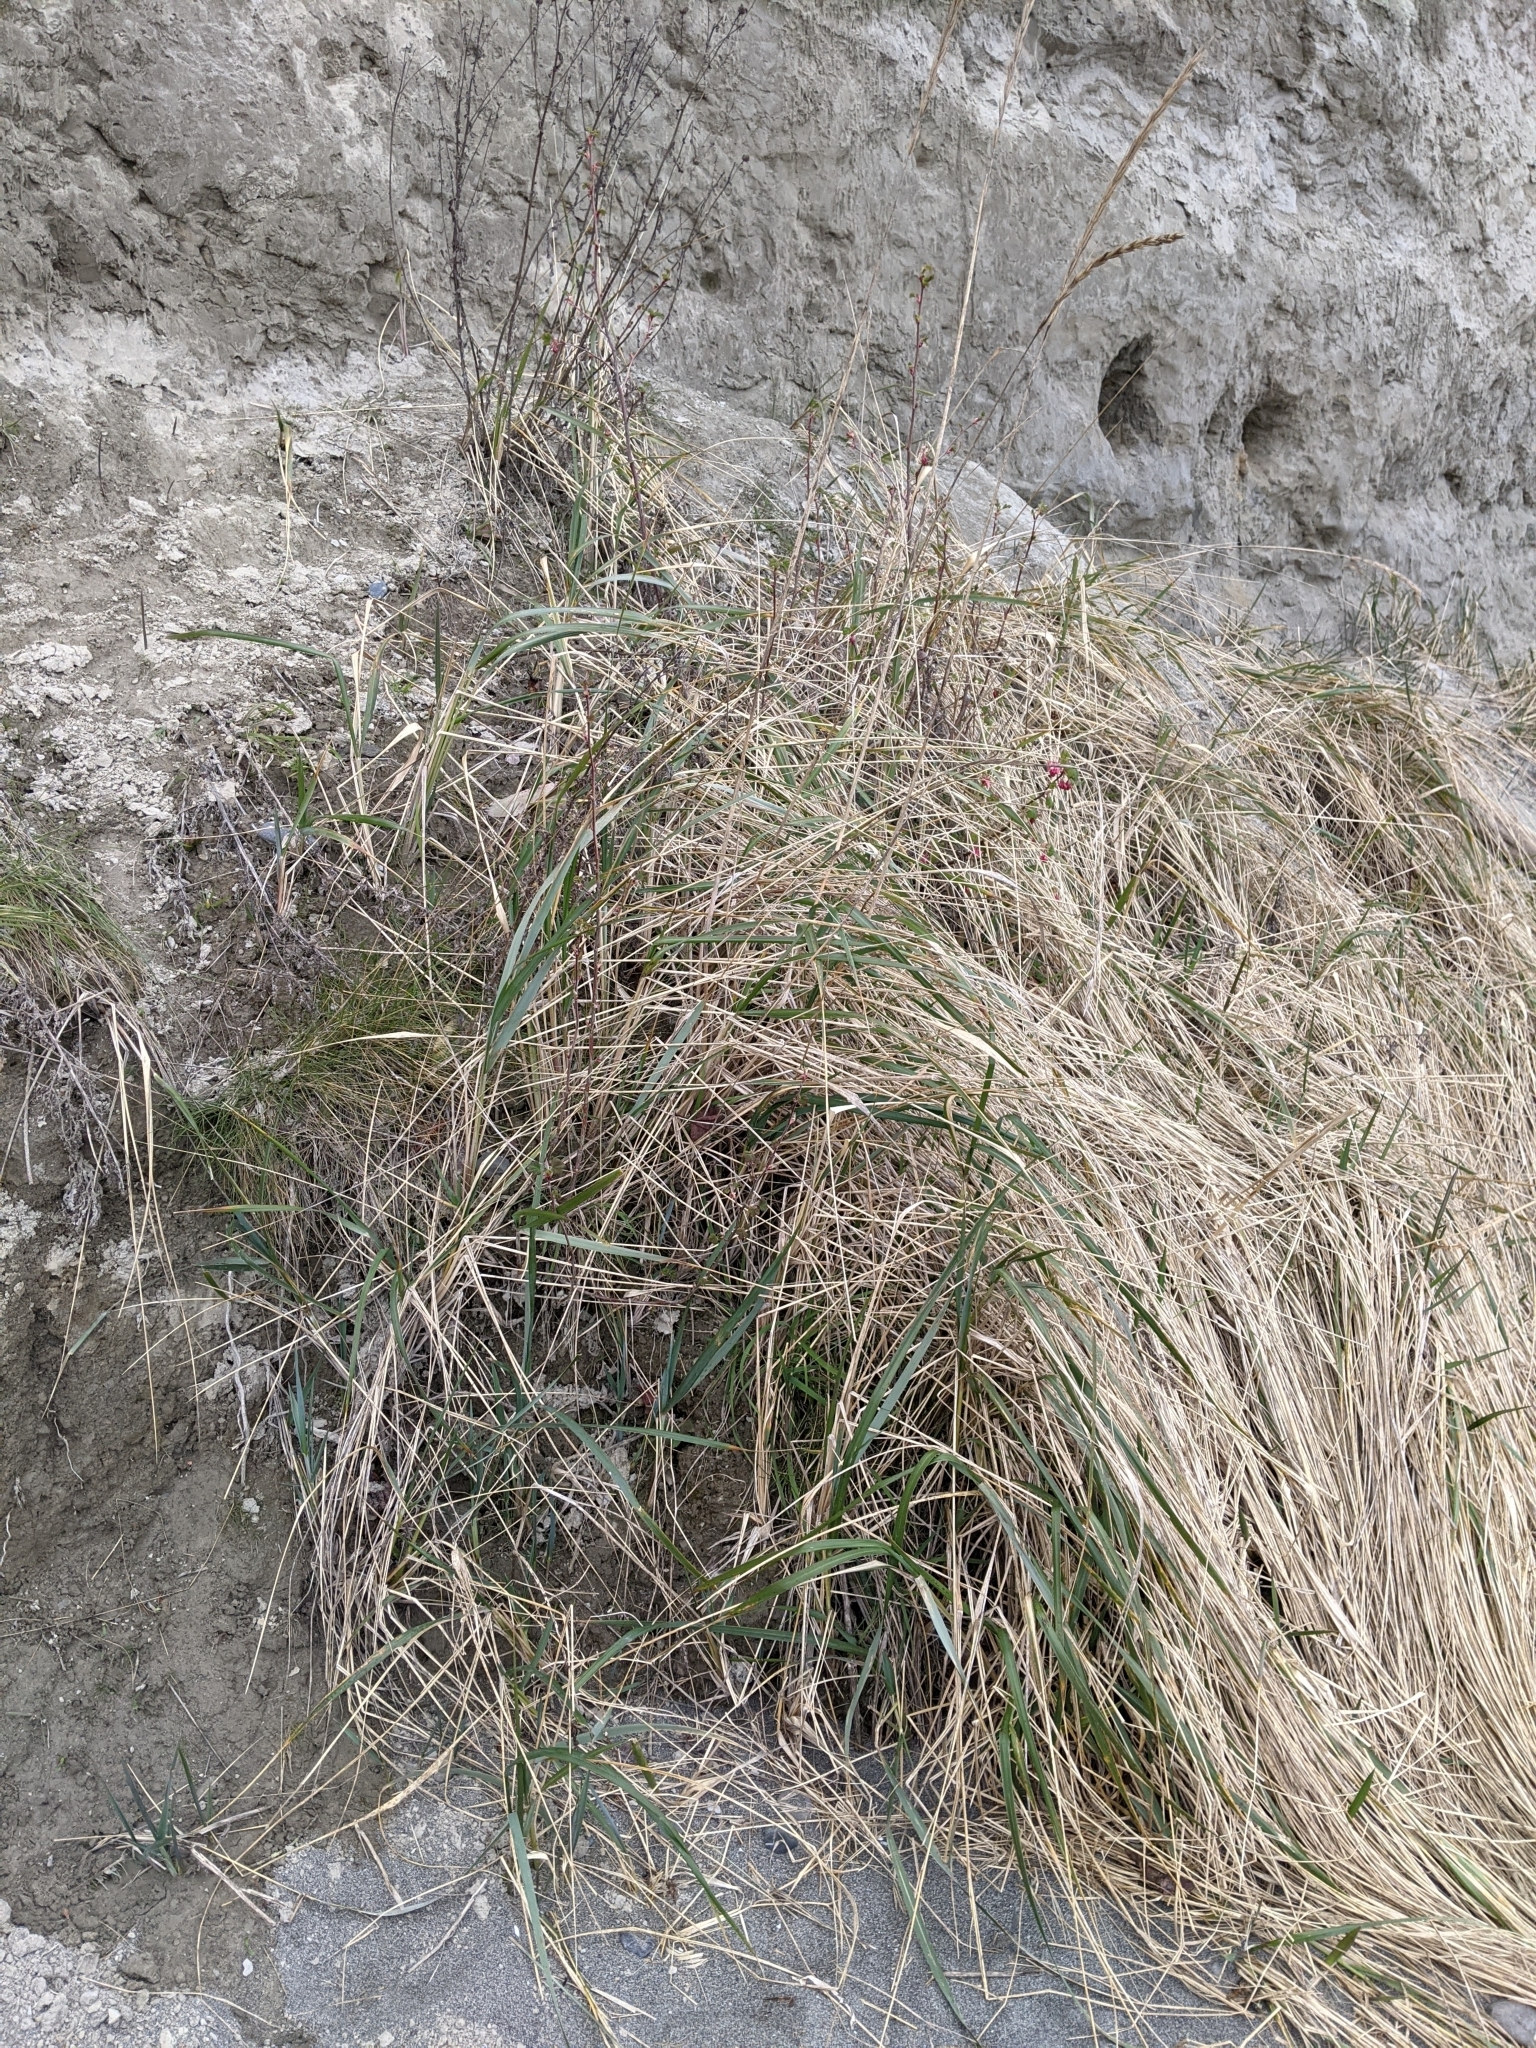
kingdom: Plantae
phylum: Tracheophyta
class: Liliopsida
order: Poales
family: Poaceae
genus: Leymus
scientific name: Leymus mollis
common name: American dune grass
